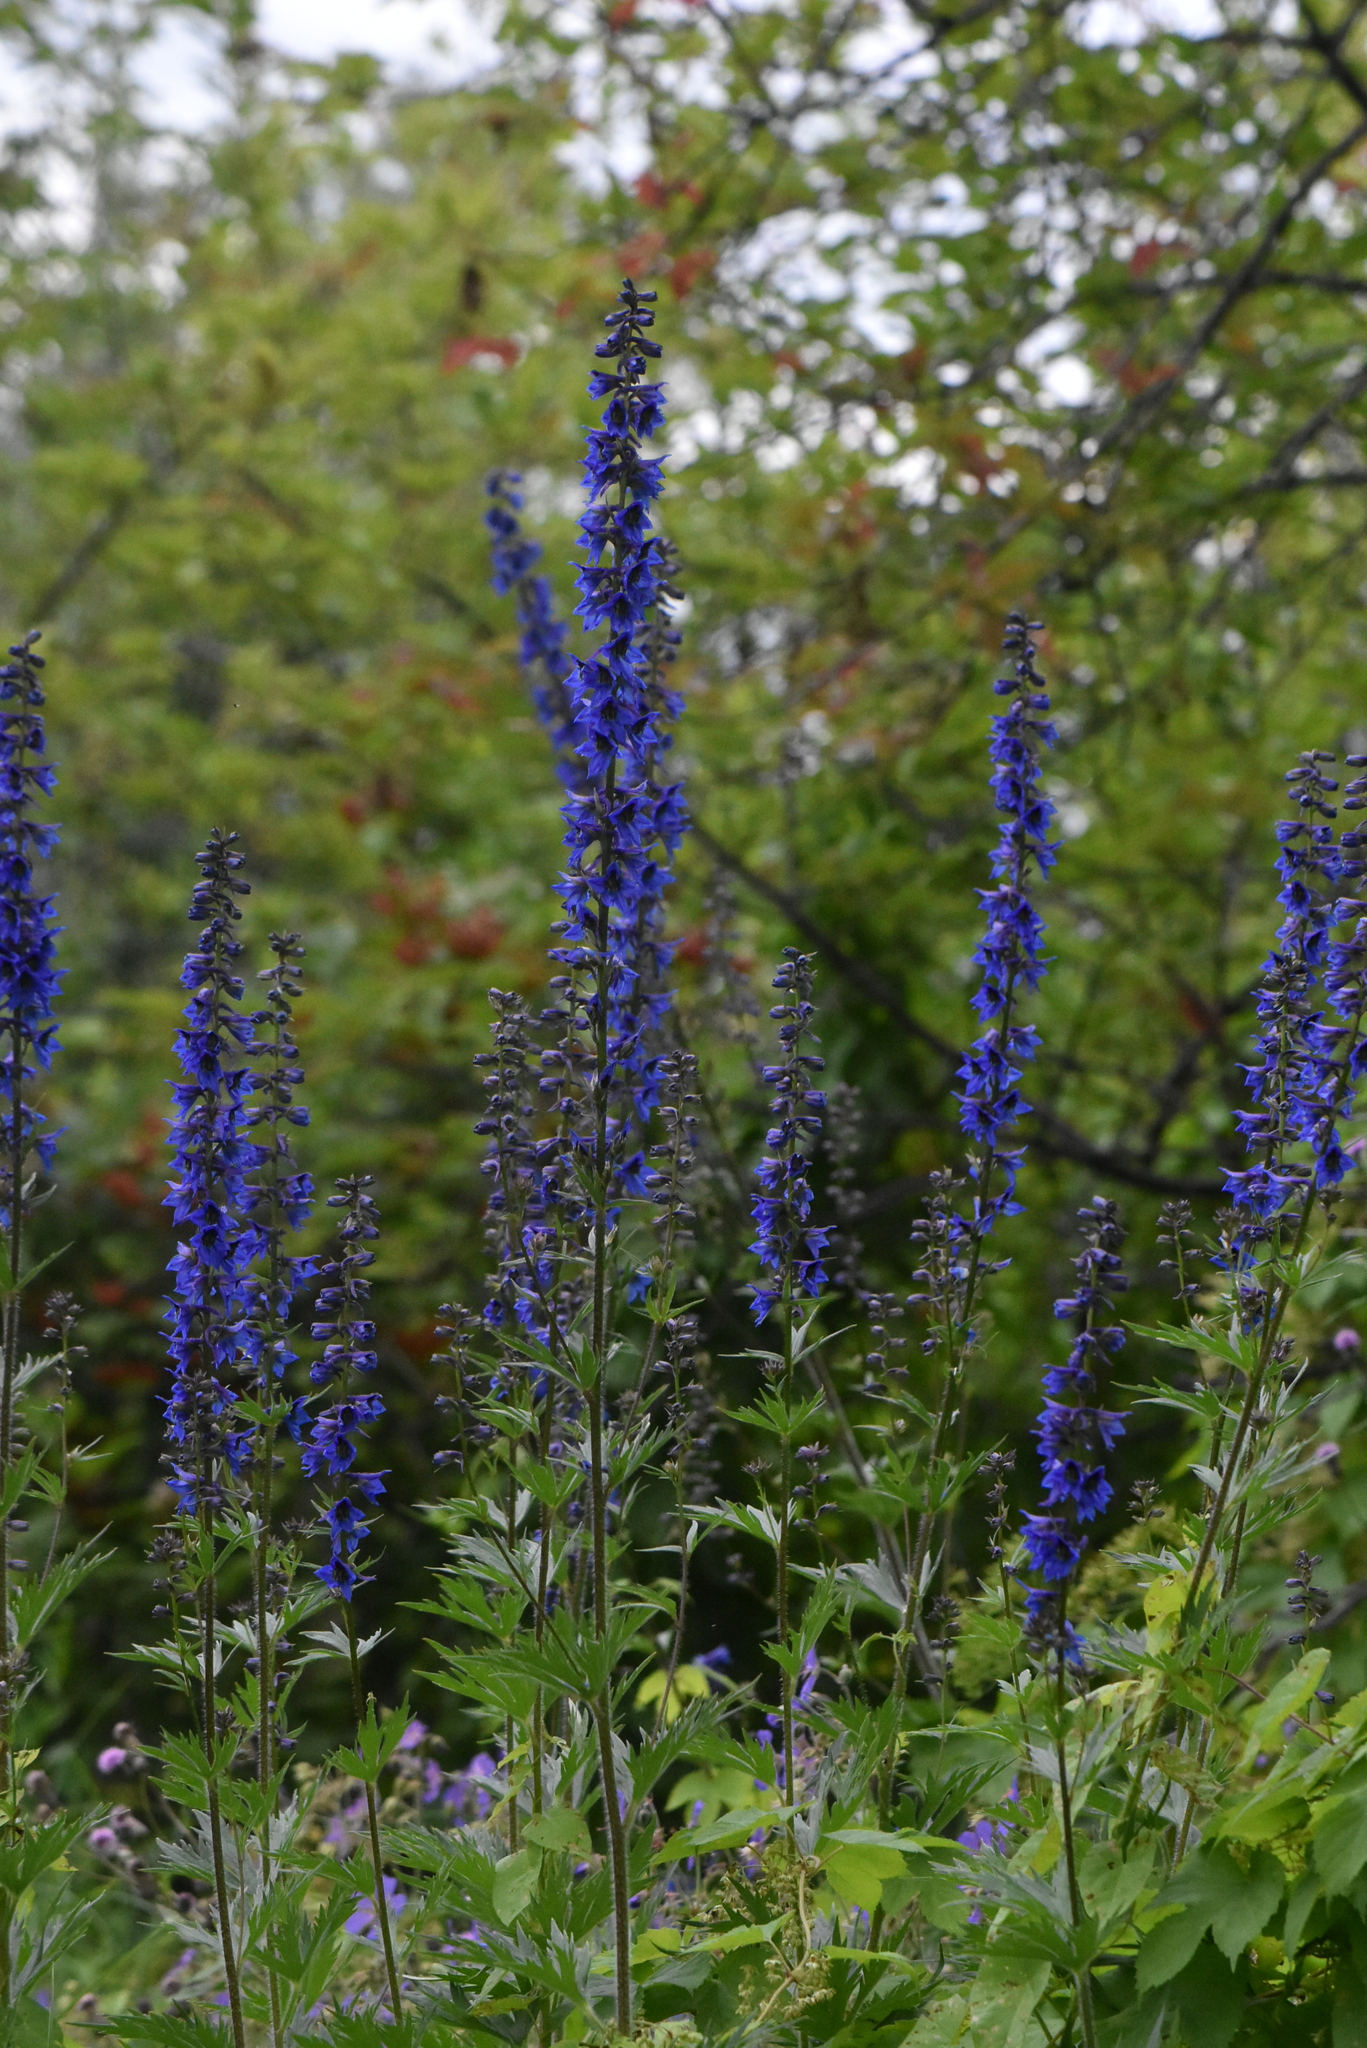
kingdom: Plantae
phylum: Tracheophyta
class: Magnoliopsida
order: Ranunculales
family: Ranunculaceae
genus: Delphinium
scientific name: Delphinium retropilosum
